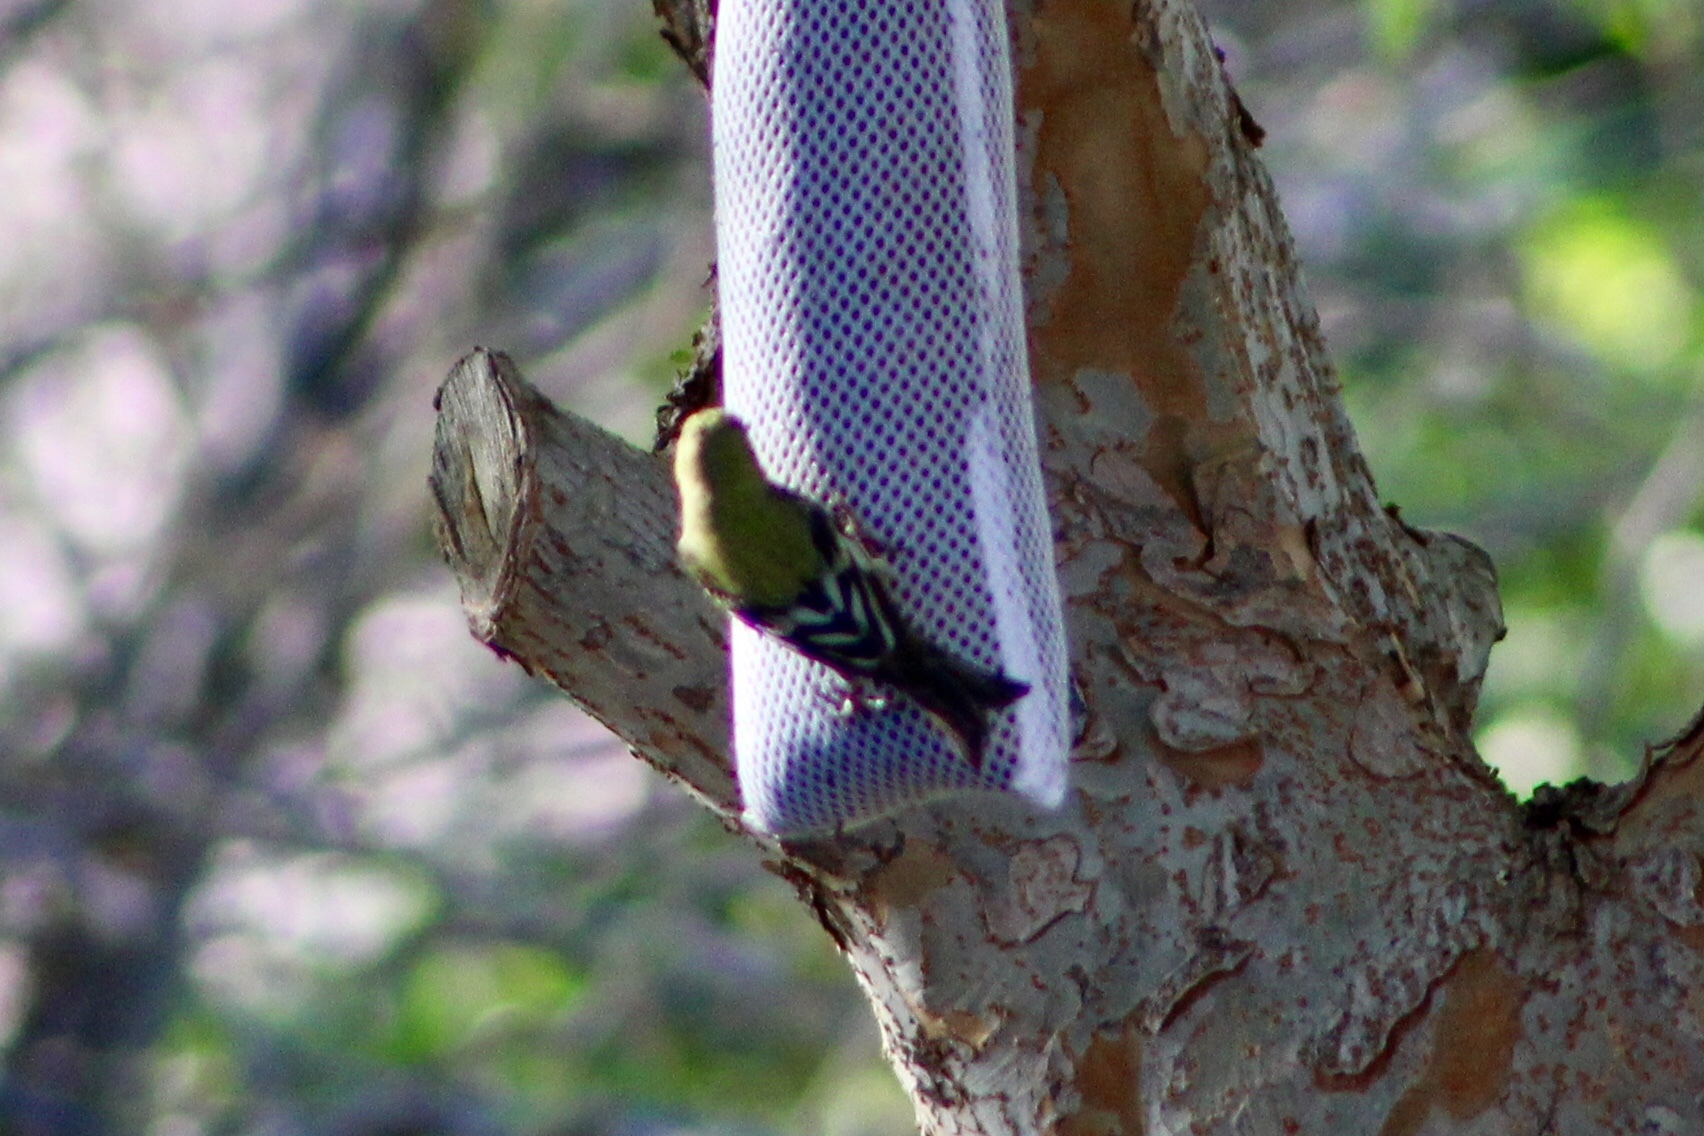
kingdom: Animalia
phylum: Chordata
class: Aves
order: Passeriformes
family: Fringillidae
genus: Spinus
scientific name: Spinus psaltria
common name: Lesser goldfinch
